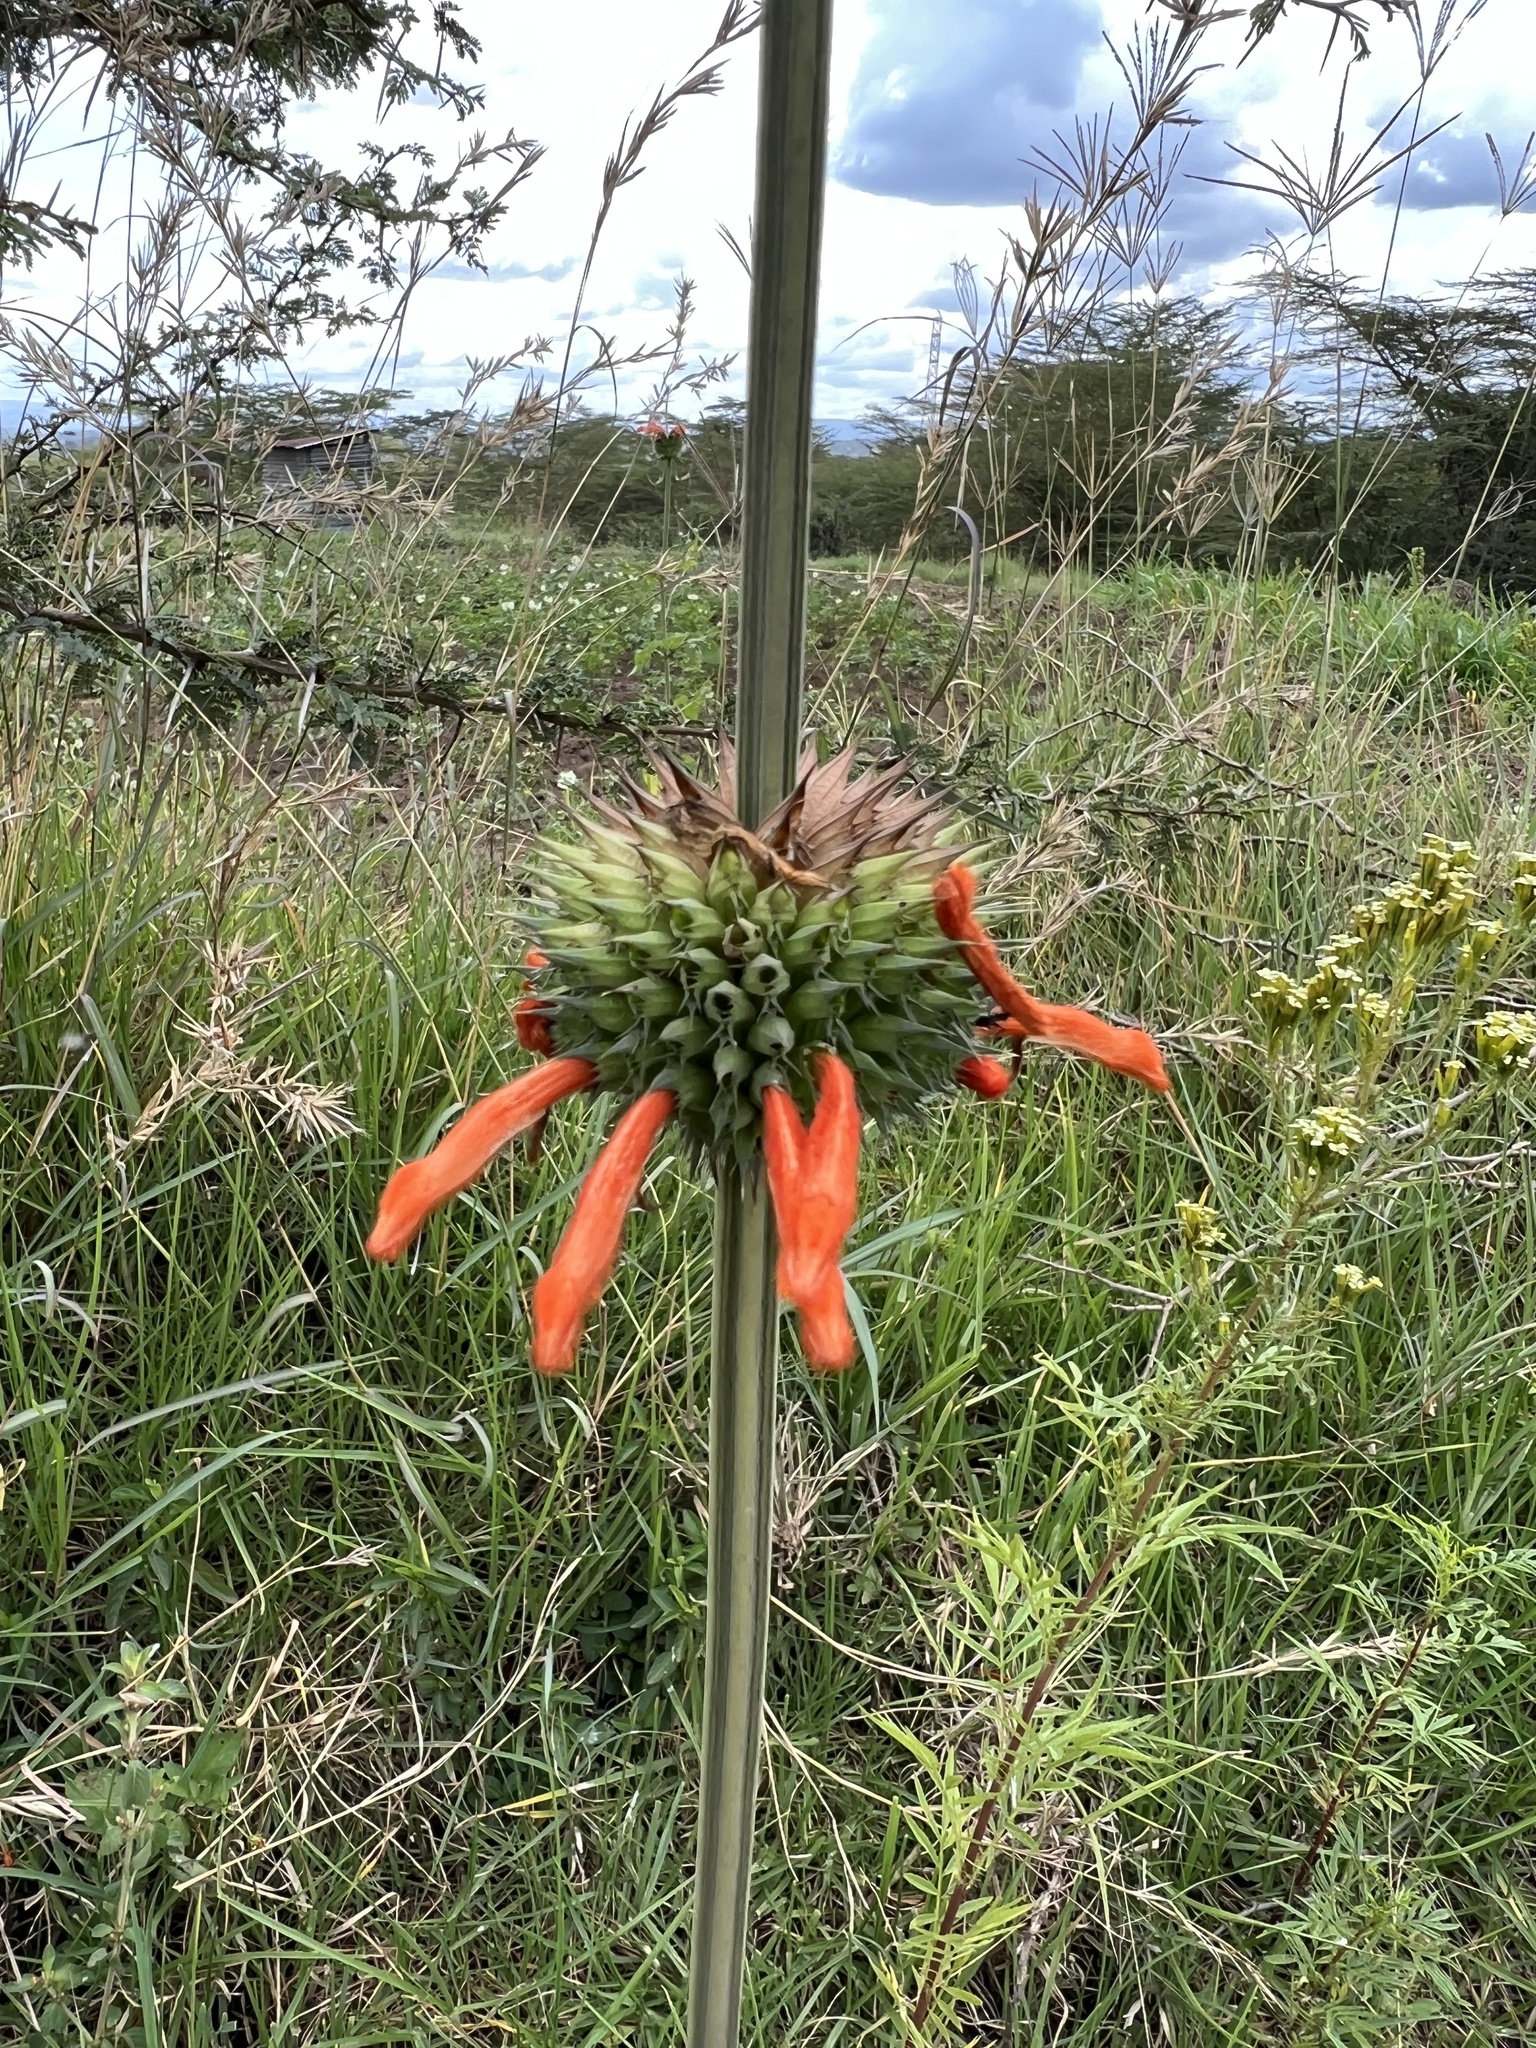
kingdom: Plantae
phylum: Tracheophyta
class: Magnoliopsida
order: Lamiales
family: Lamiaceae
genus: Leonotis
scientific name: Leonotis nepetifolia
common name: Christmas candlestick
